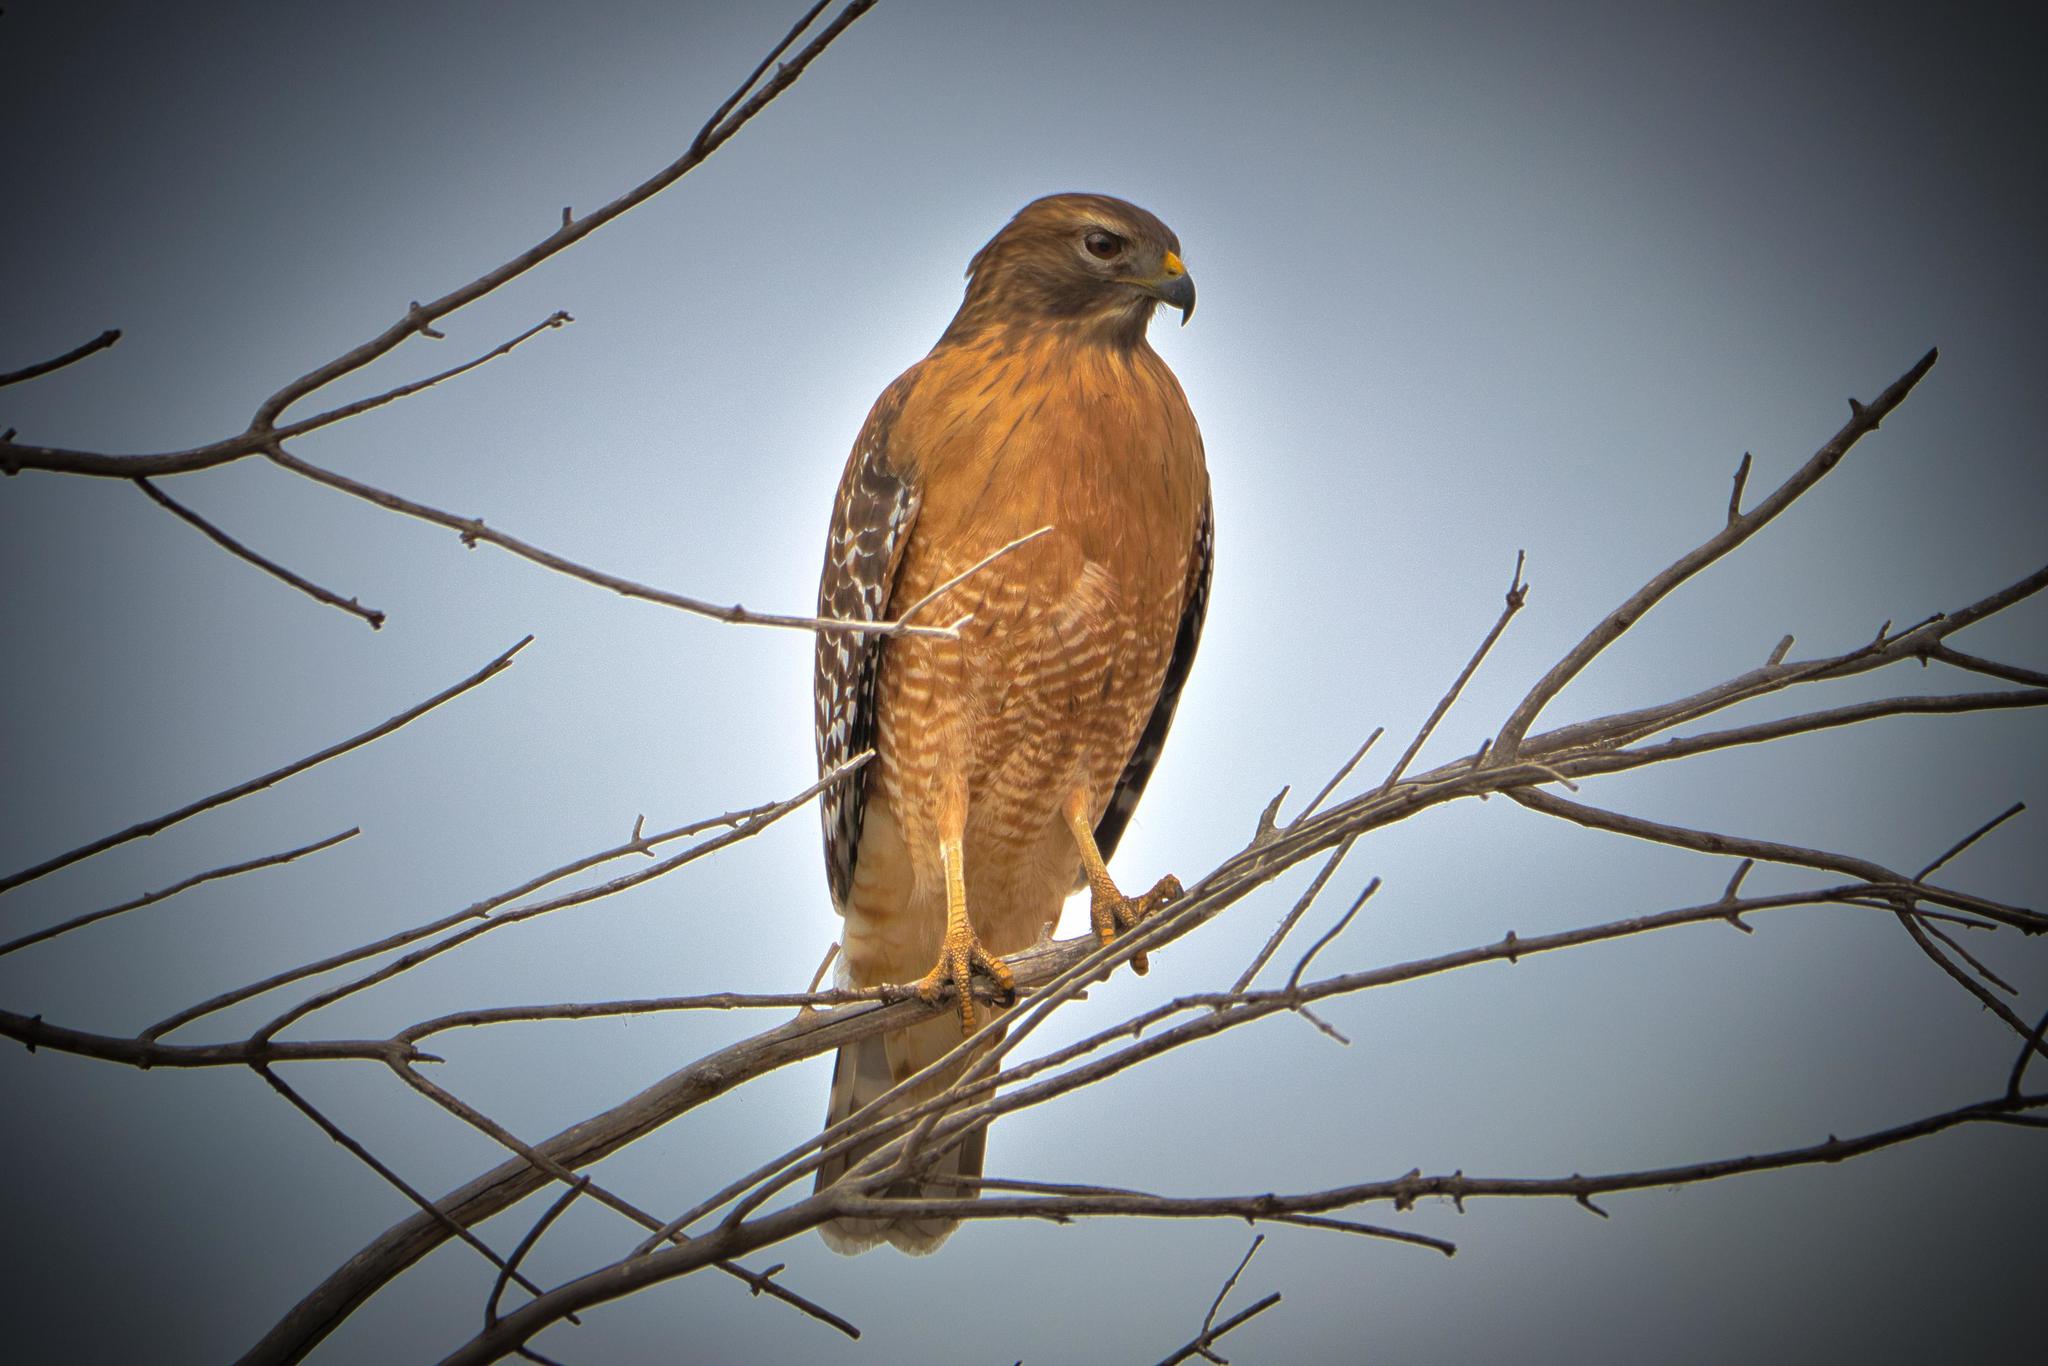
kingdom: Animalia
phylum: Chordata
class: Aves
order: Accipitriformes
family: Accipitridae
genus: Buteo
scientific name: Buteo lineatus
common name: Red-shouldered hawk
